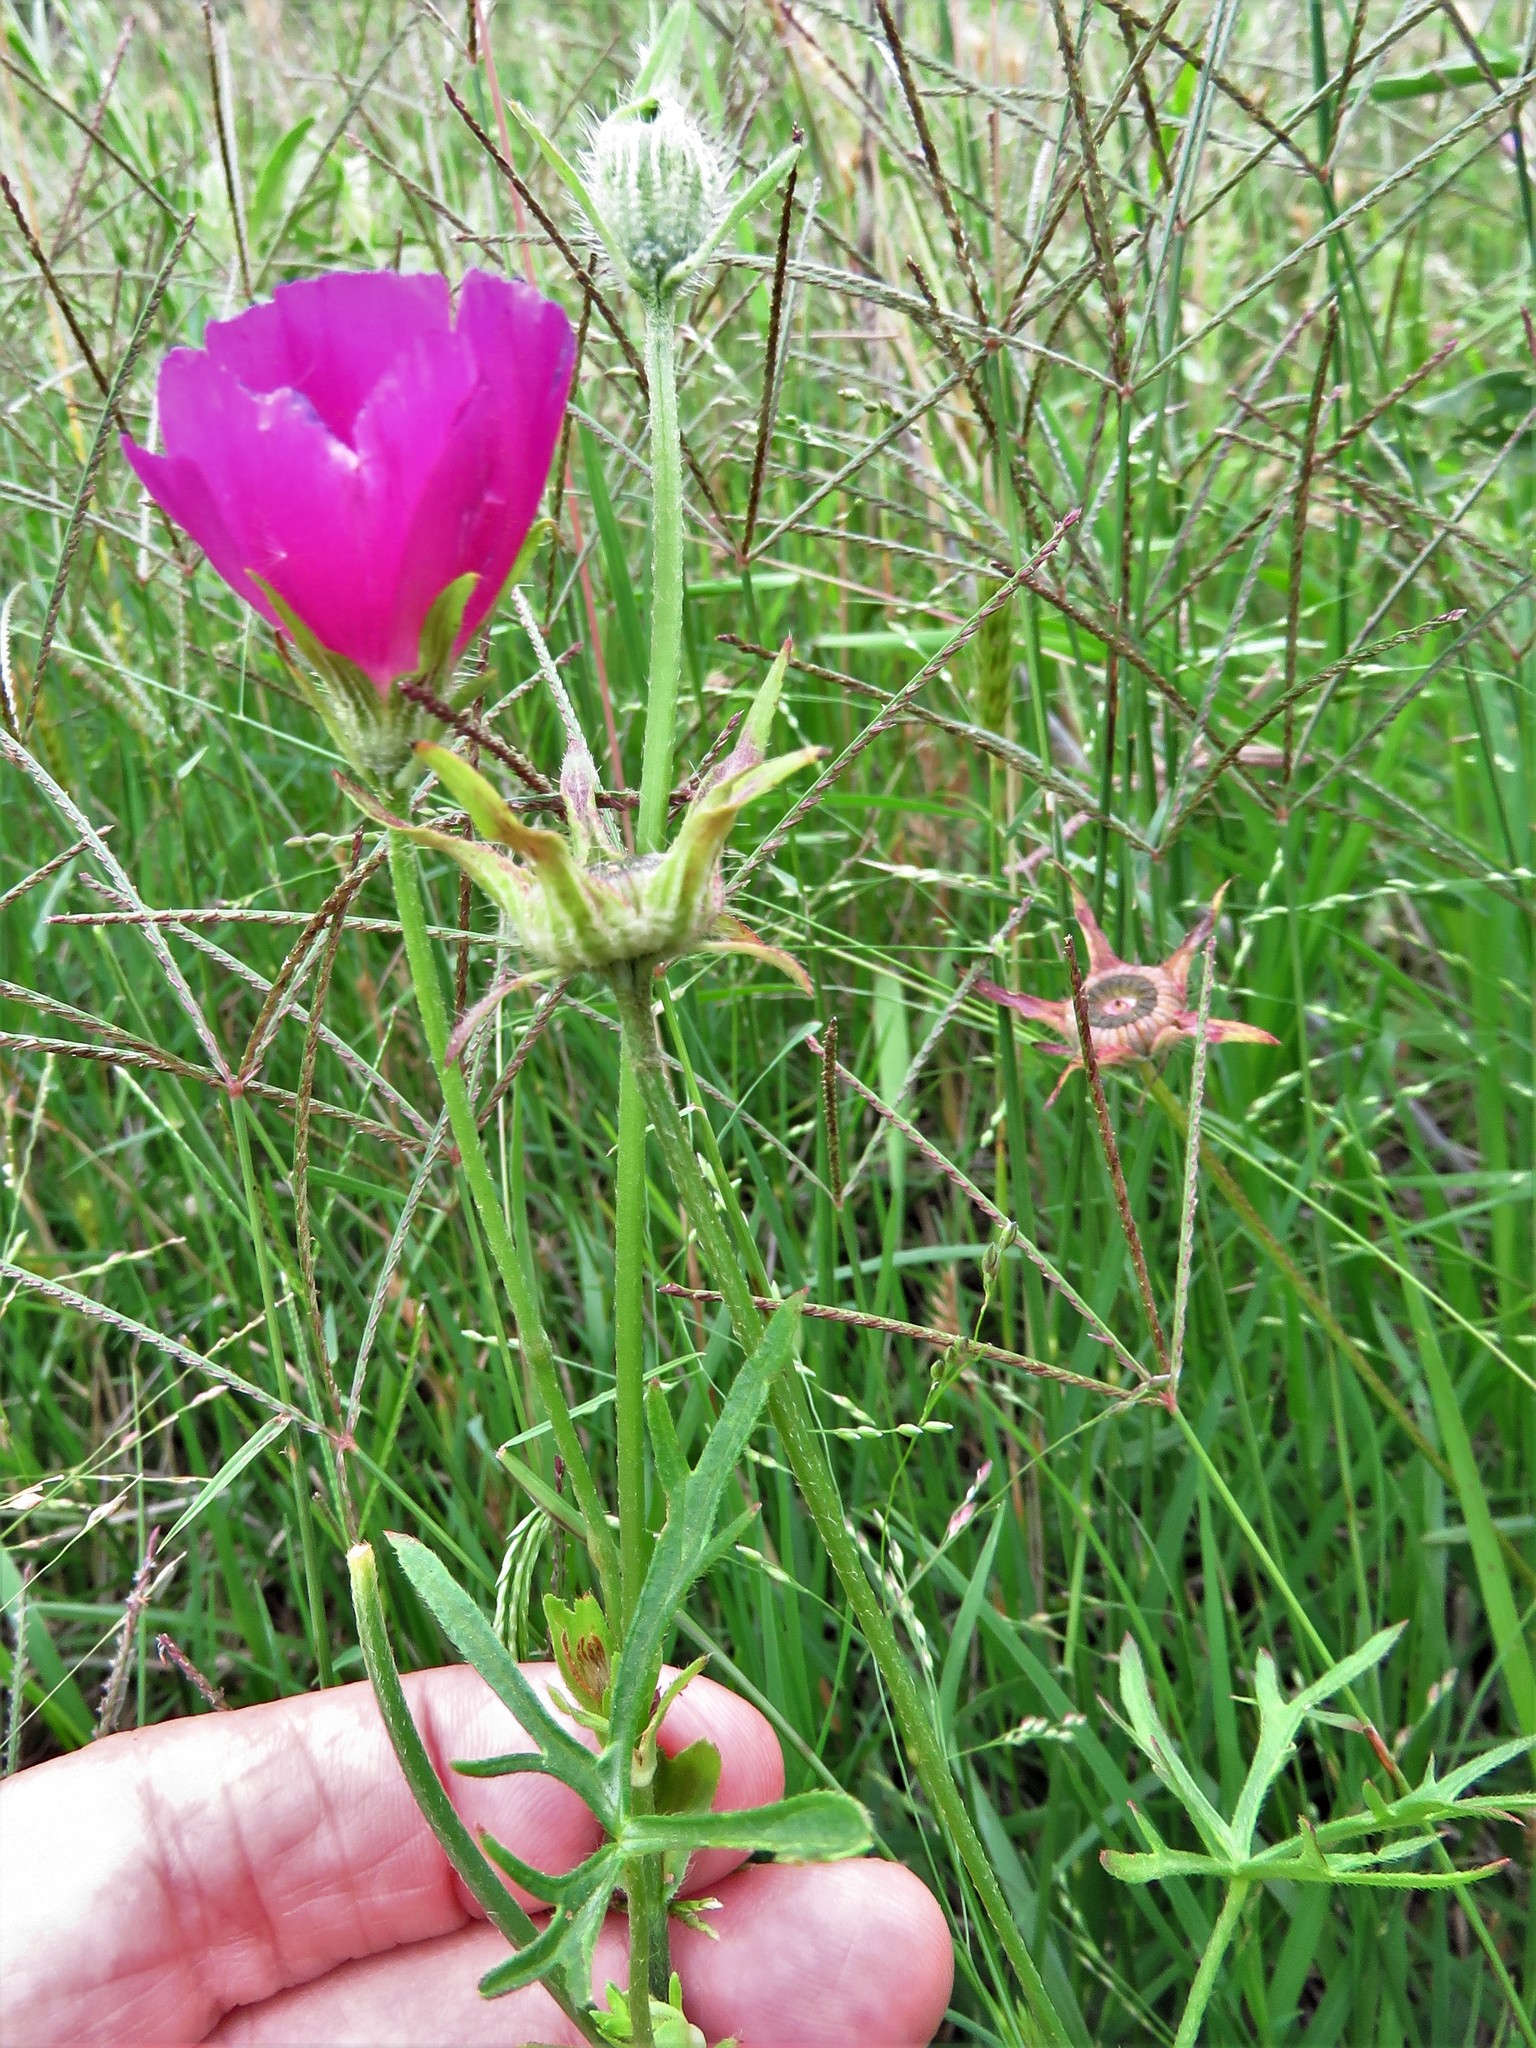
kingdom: Plantae
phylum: Tracheophyta
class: Magnoliopsida
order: Malvales
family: Malvaceae
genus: Callirhoe
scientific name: Callirhoe involucrata
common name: Purple poppy-mallow
